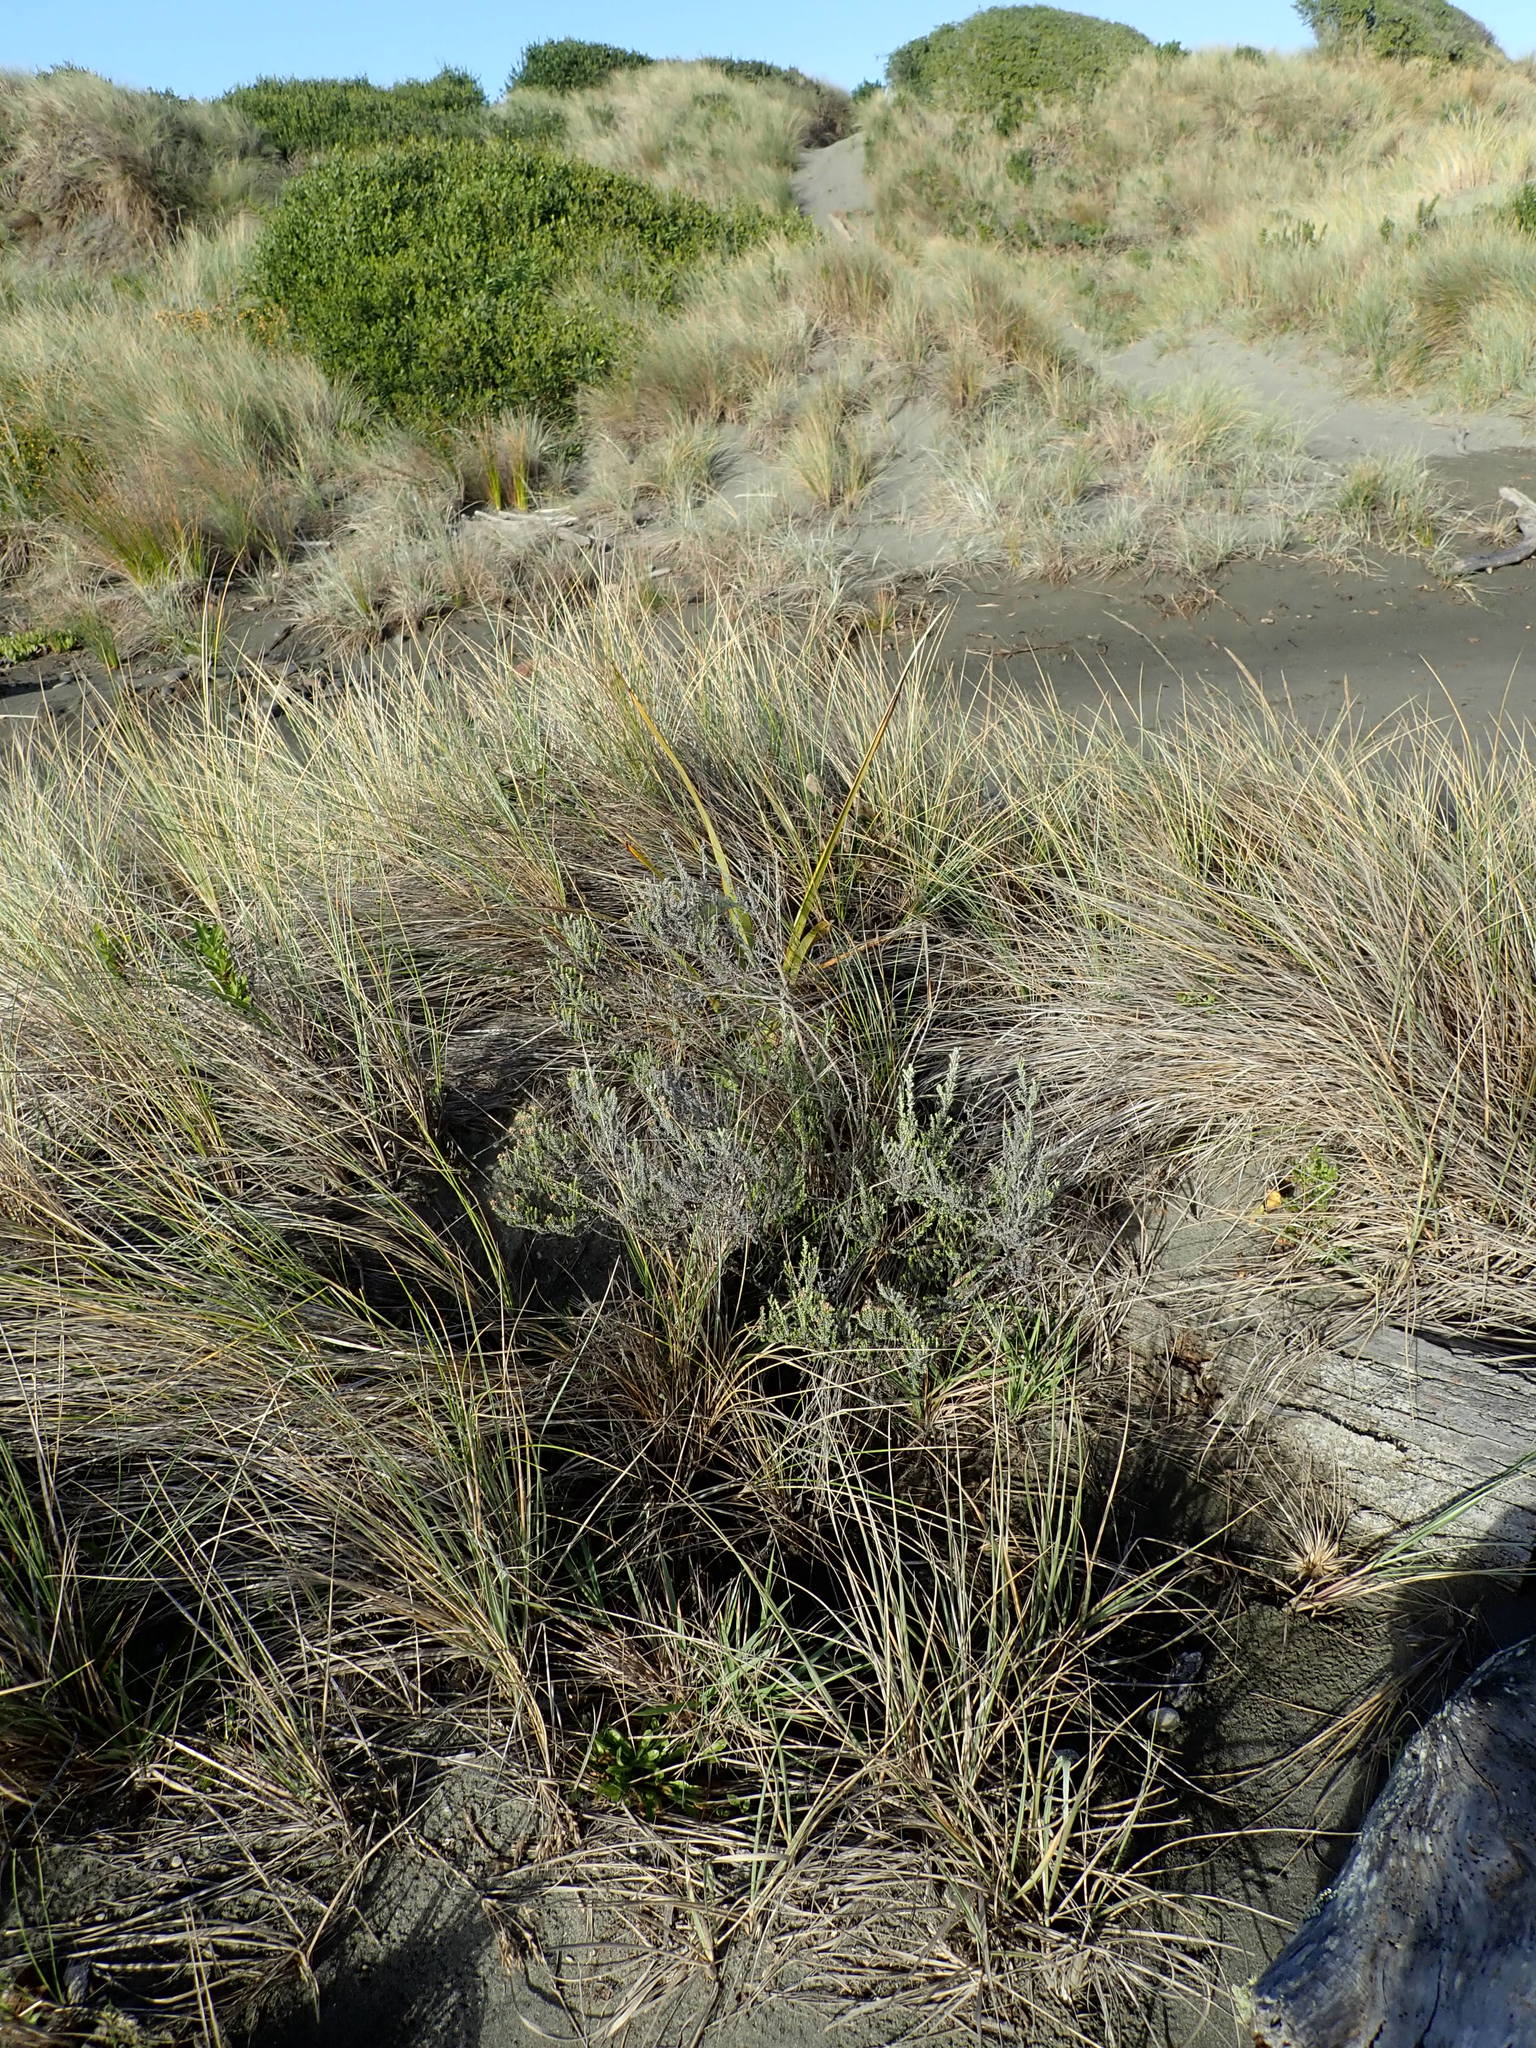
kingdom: Plantae
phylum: Tracheophyta
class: Magnoliopsida
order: Asterales
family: Asteraceae
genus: Ozothamnus
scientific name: Ozothamnus leptophyllus
